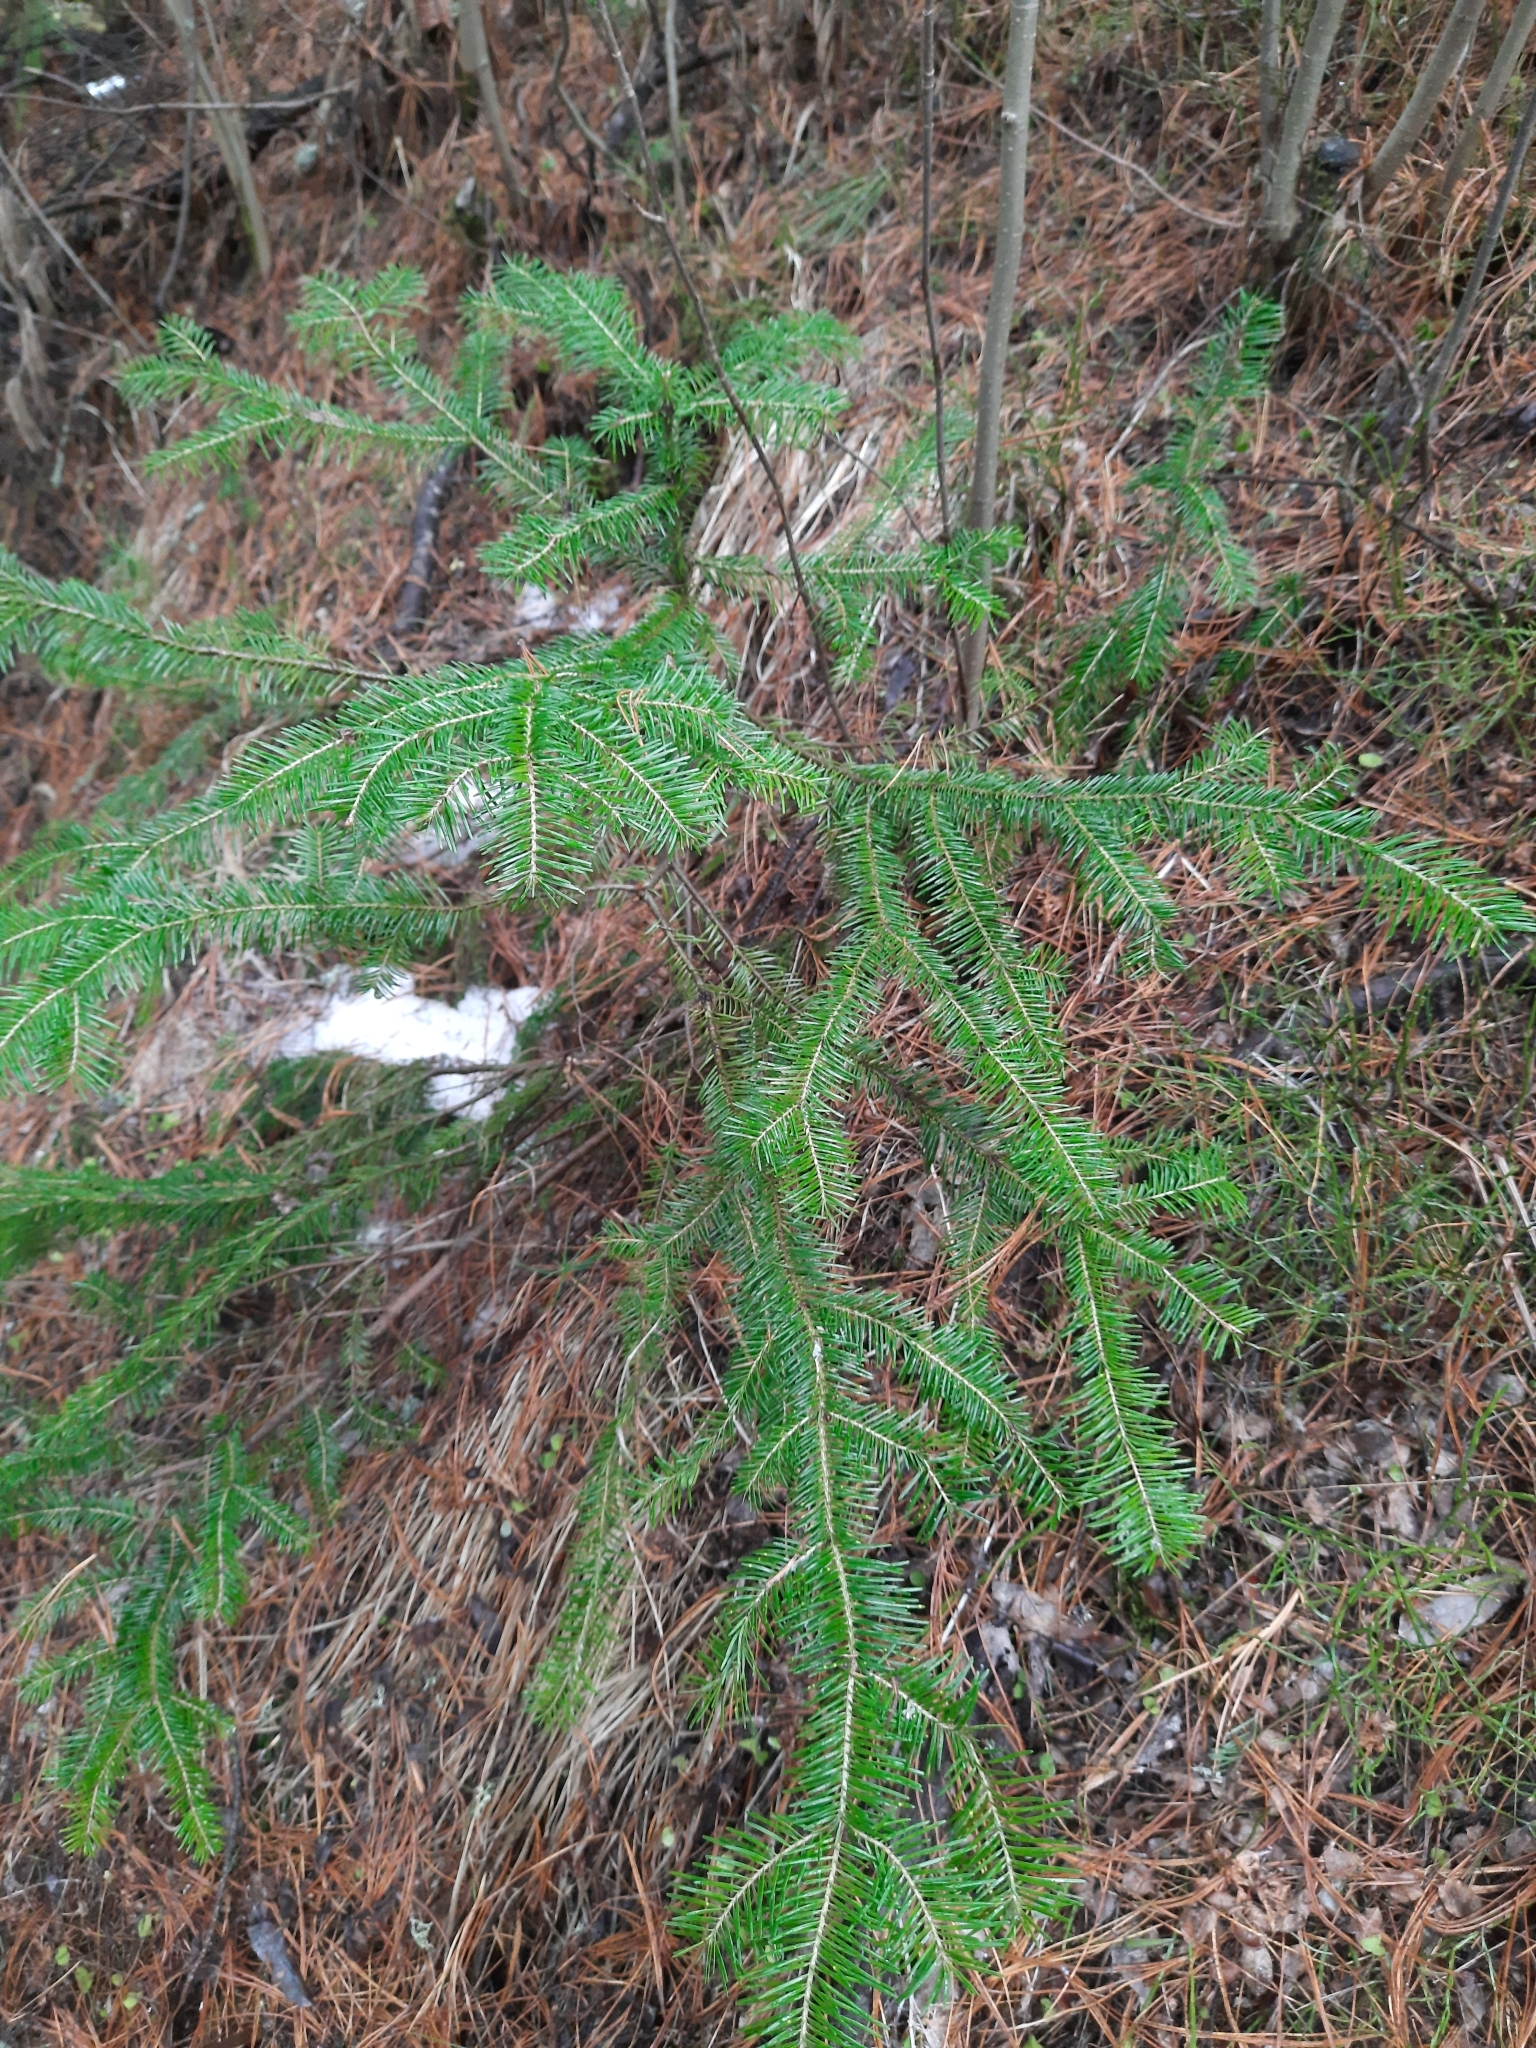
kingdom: Plantae
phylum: Tracheophyta
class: Pinopsida
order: Pinales
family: Pinaceae
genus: Abies
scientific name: Abies sibirica
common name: Siberian fir
